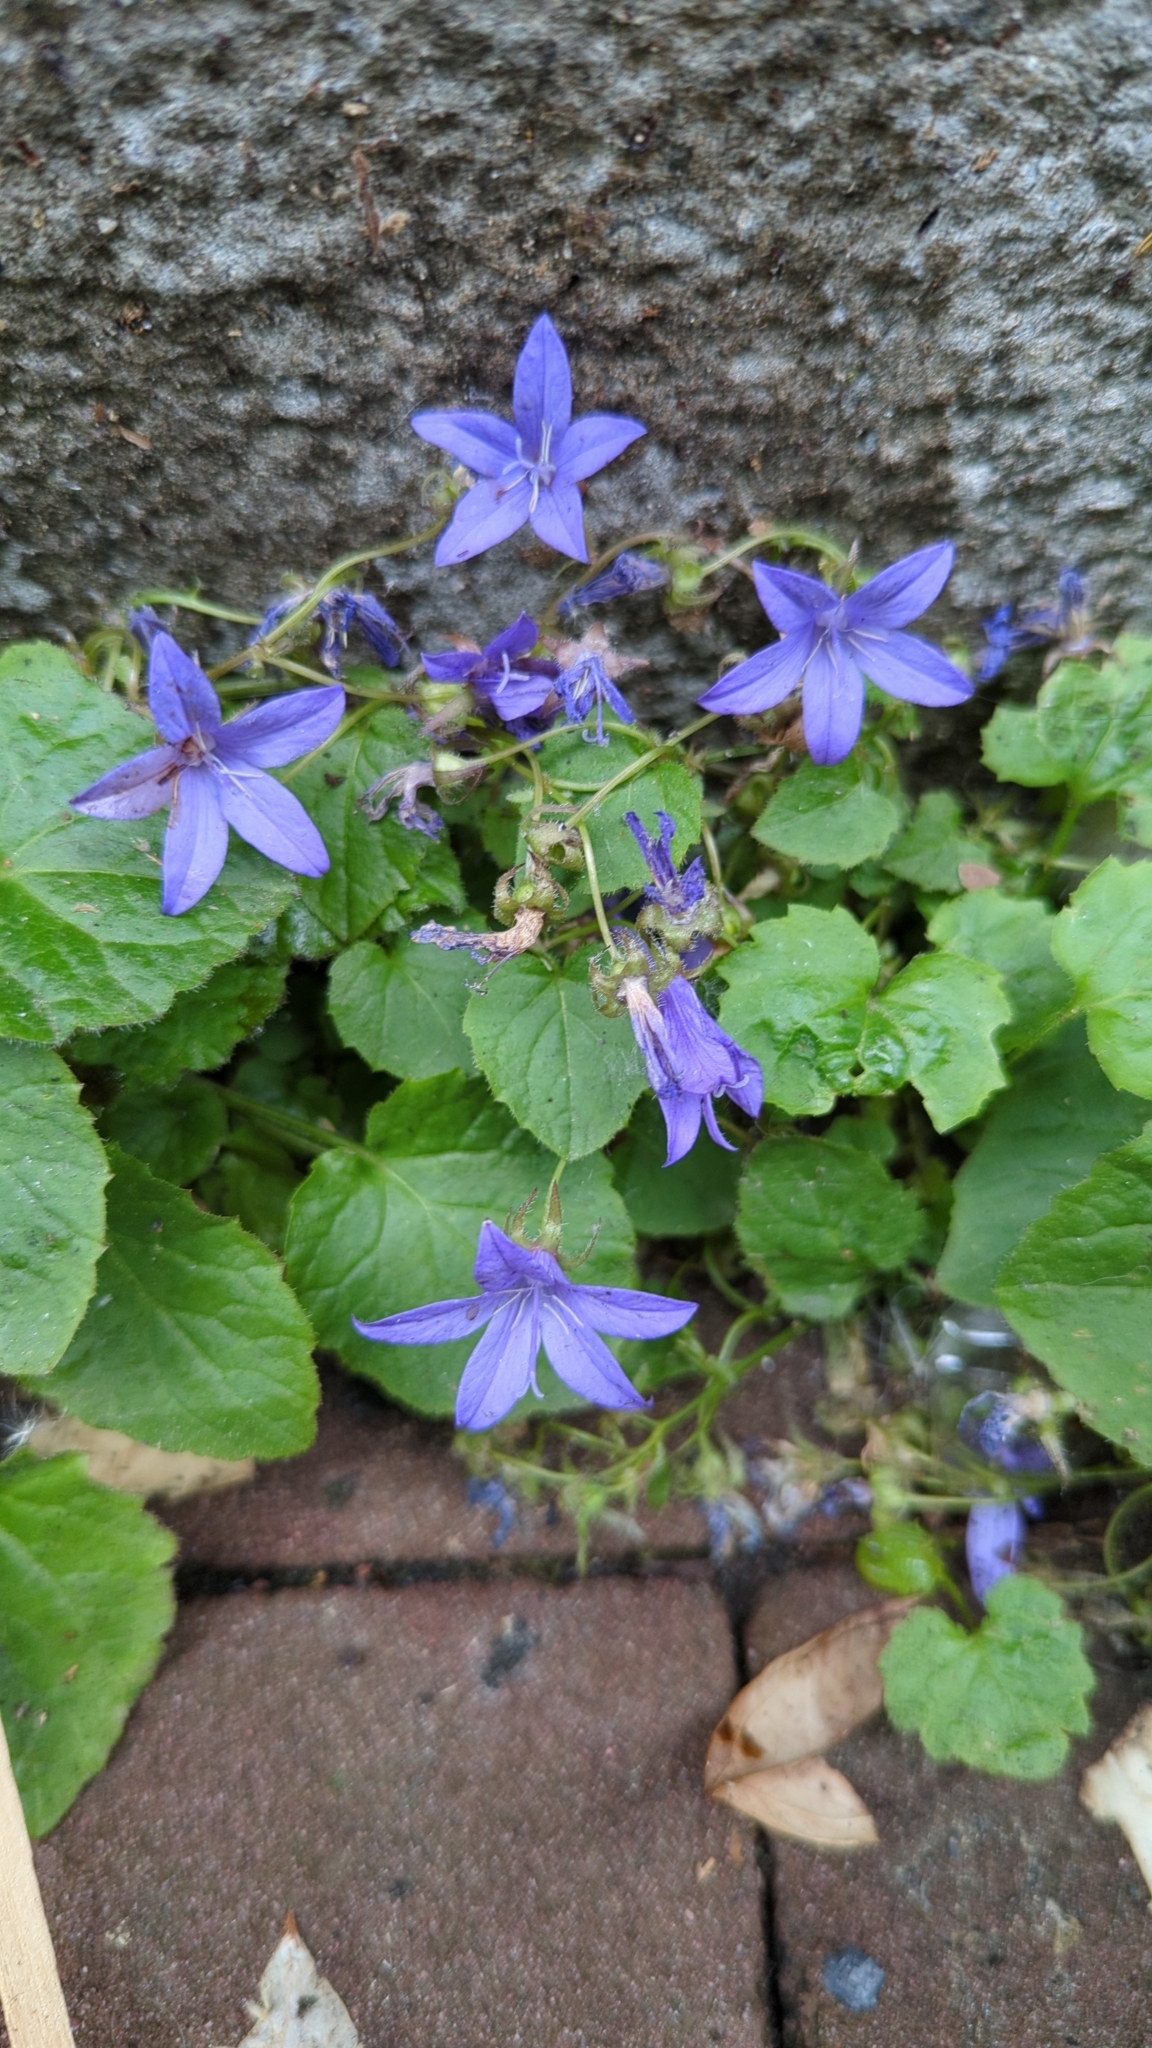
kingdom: Plantae
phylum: Tracheophyta
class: Magnoliopsida
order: Asterales
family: Campanulaceae
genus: Campanula
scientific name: Campanula poscharskyana
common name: Trailing bellflower
